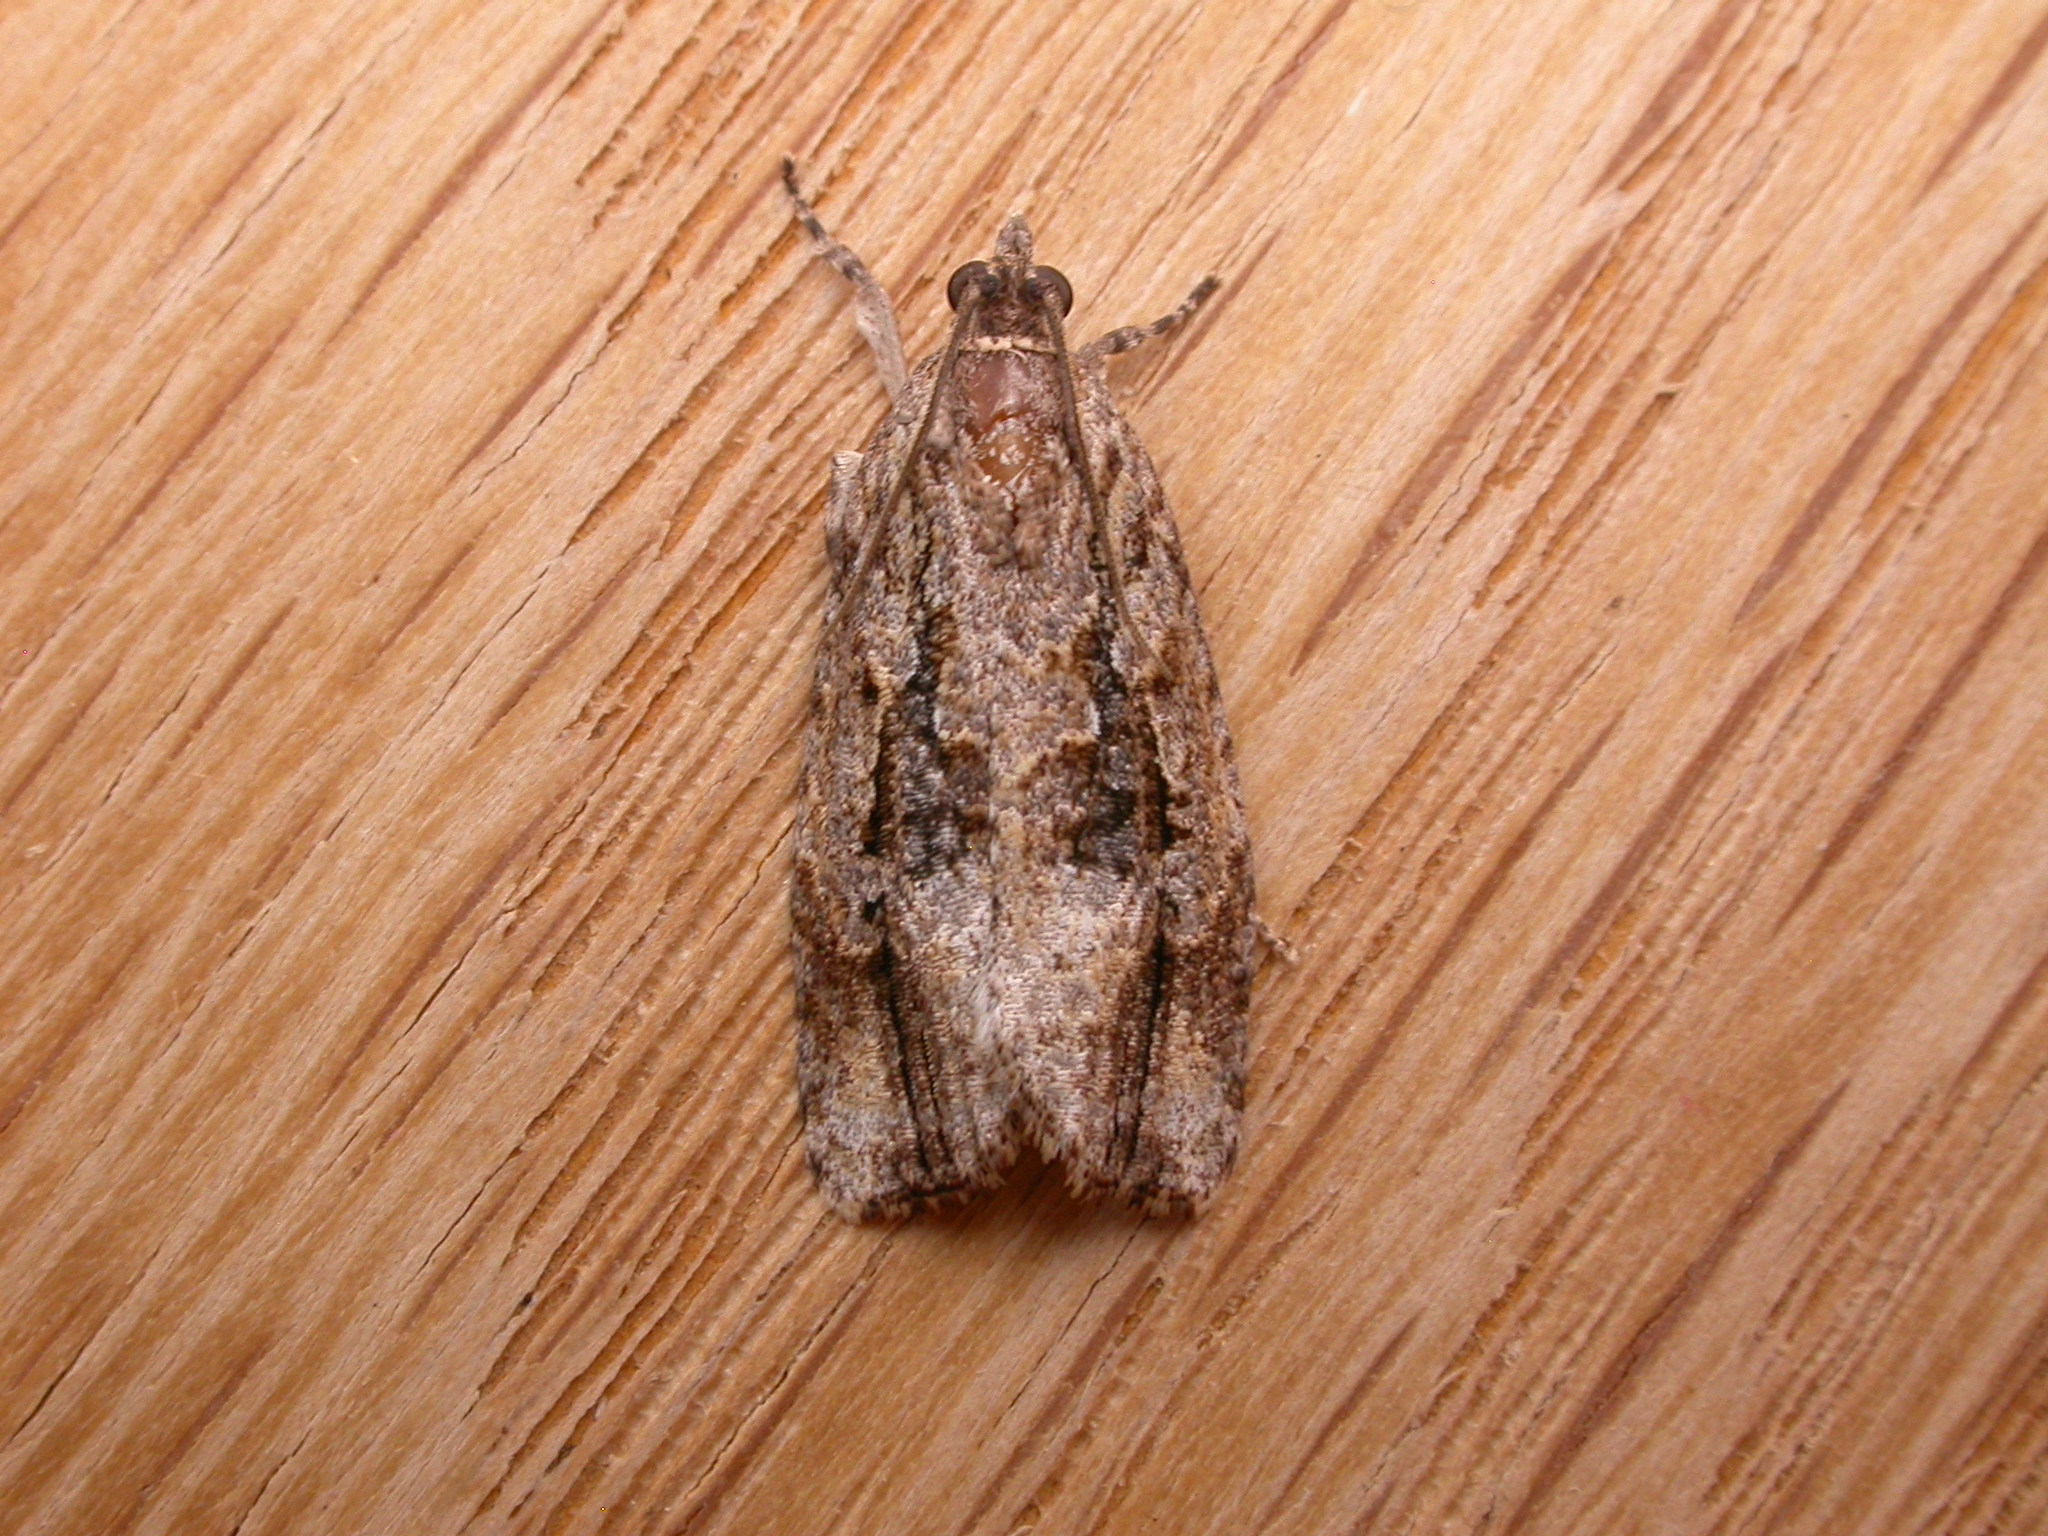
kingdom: Animalia
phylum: Arthropoda
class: Insecta
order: Lepidoptera
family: Tortricidae
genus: Thrincophora
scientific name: Thrincophora lignigerana
